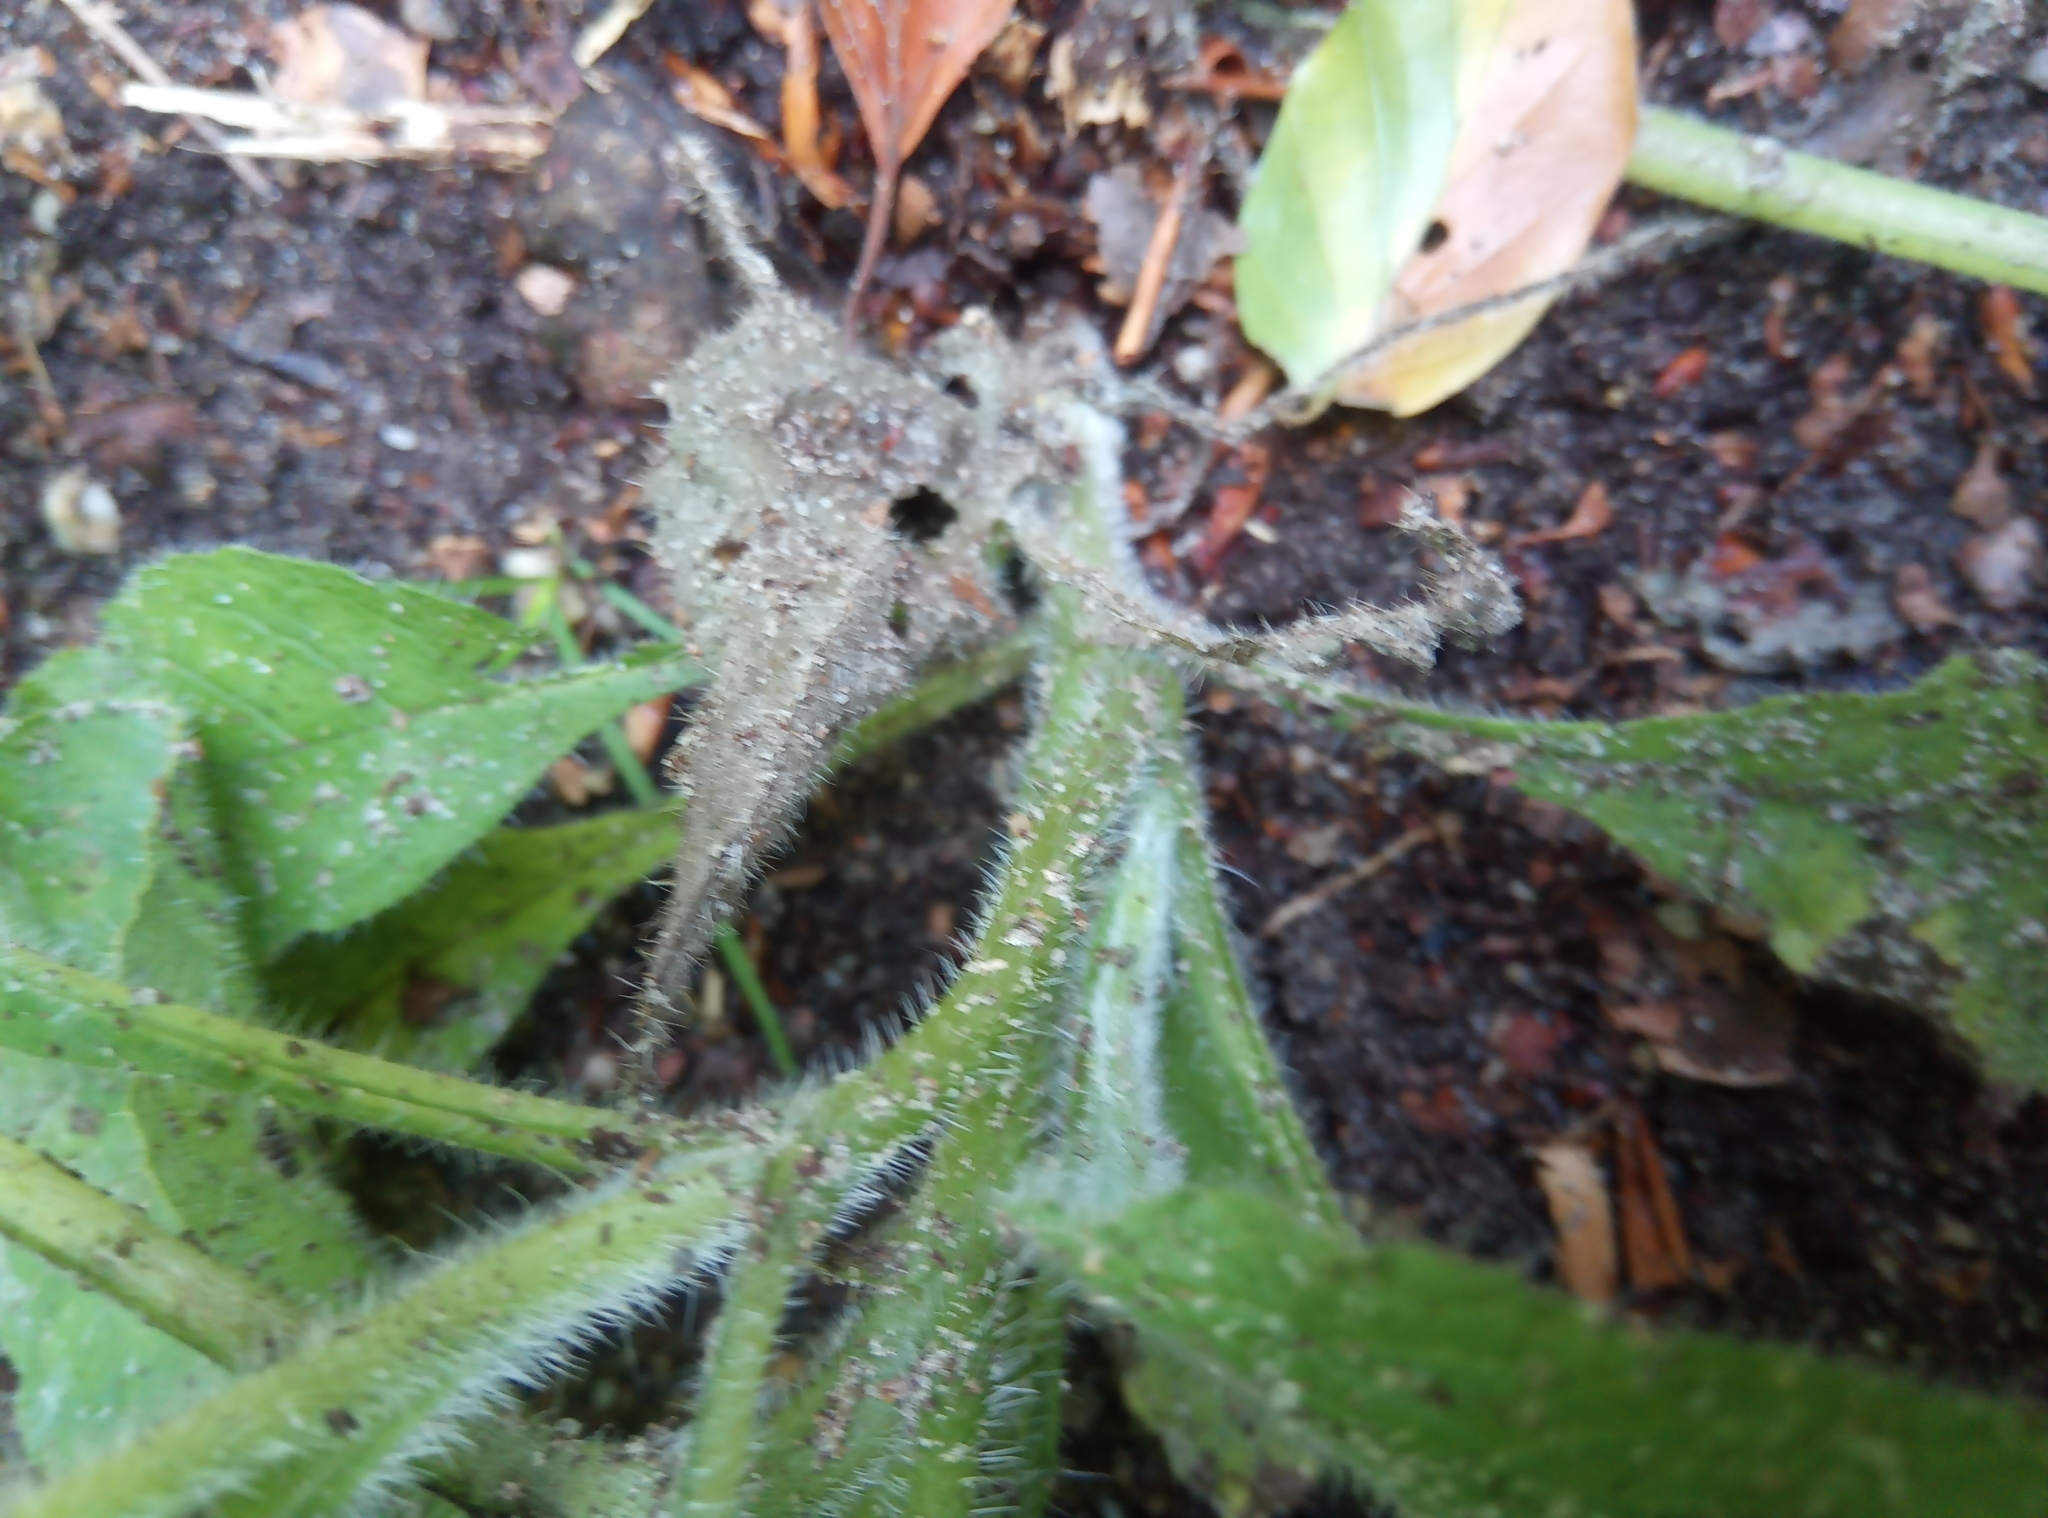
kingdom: Plantae
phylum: Tracheophyta
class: Magnoliopsida
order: Boraginales
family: Boraginaceae
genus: Pentaglottis
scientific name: Pentaglottis sempervirens
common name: Green alkanet
